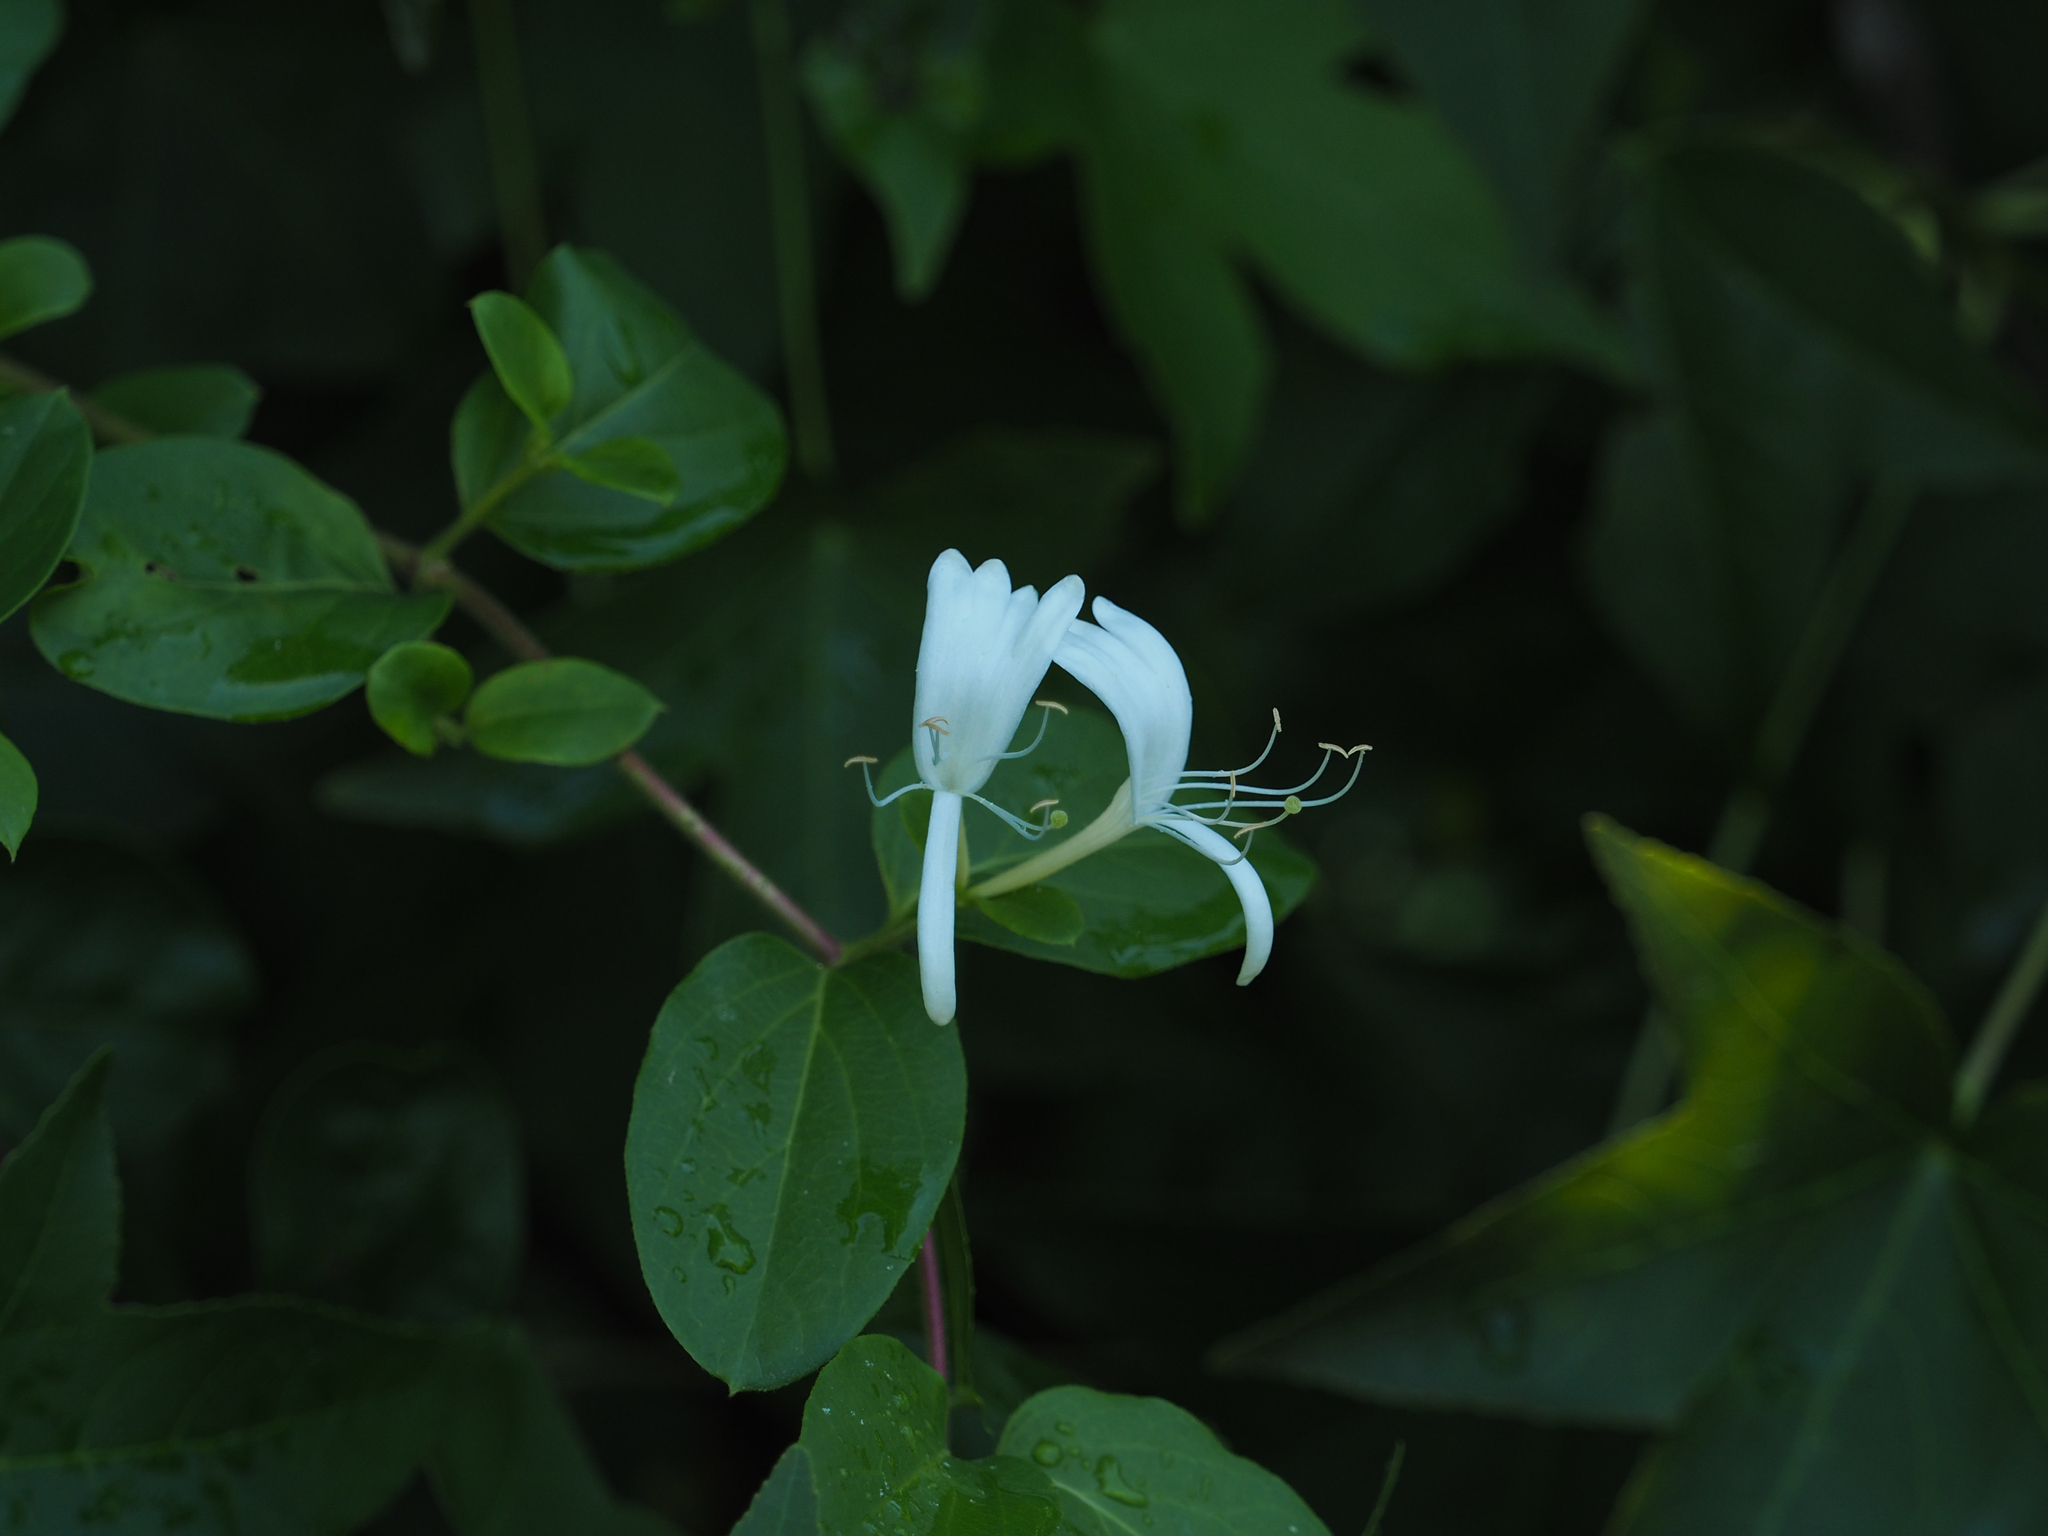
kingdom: Plantae
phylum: Tracheophyta
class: Magnoliopsida
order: Dipsacales
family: Caprifoliaceae
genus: Lonicera
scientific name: Lonicera japonica
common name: Japanese honeysuckle
